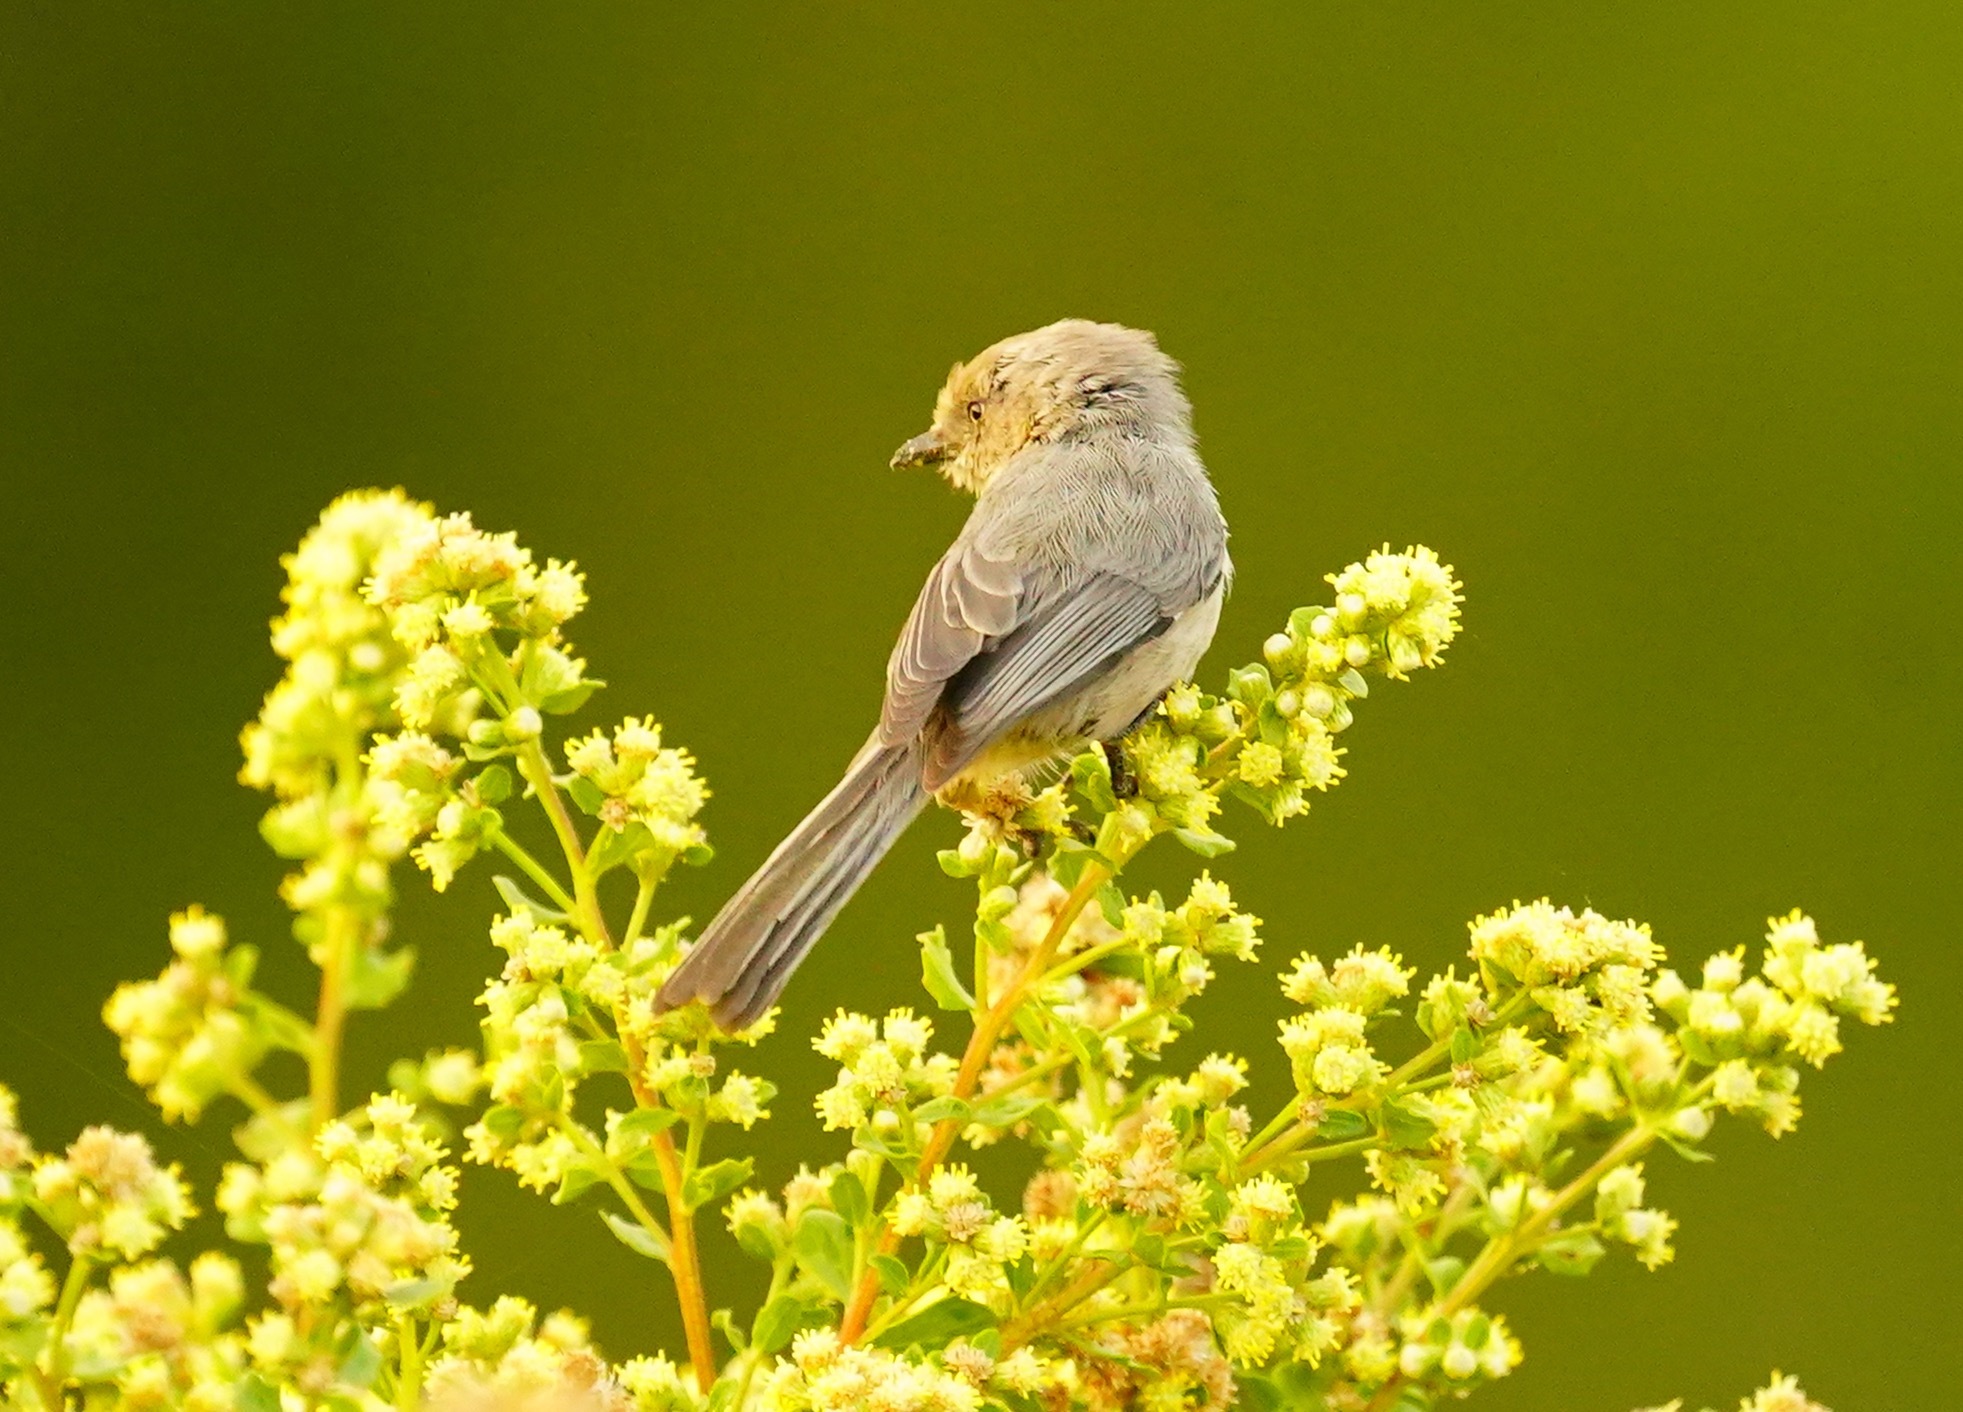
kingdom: Animalia
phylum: Chordata
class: Aves
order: Passeriformes
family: Aegithalidae
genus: Psaltriparus
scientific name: Psaltriparus minimus
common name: American bushtit
